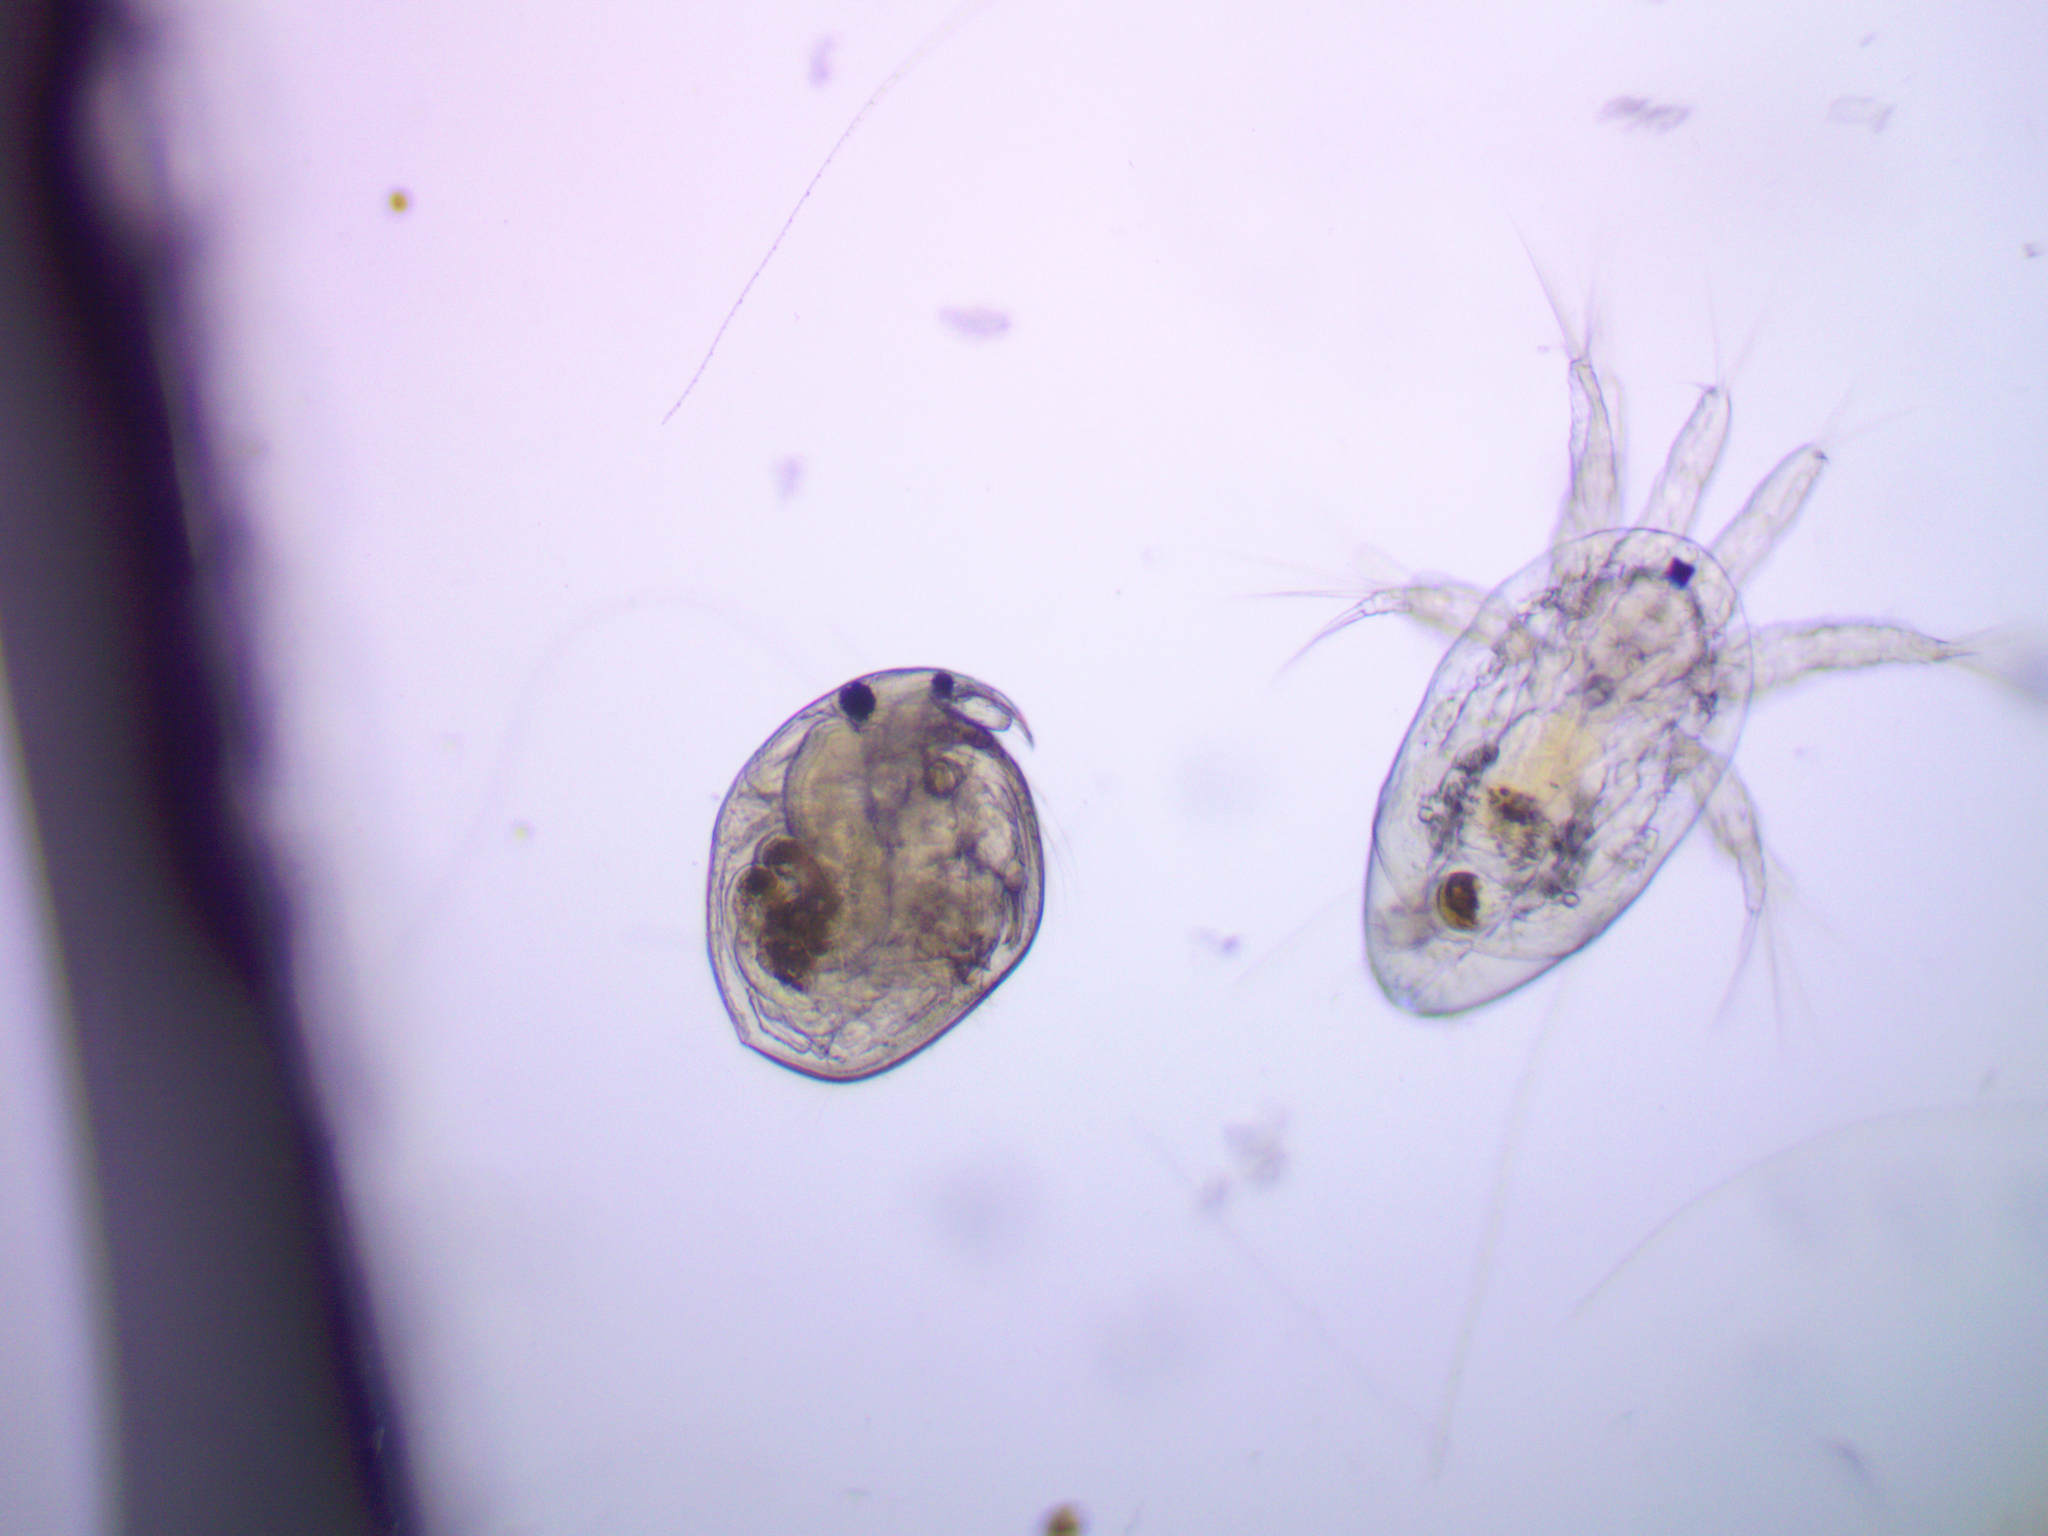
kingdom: Animalia
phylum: Arthropoda
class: Branchiopoda
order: Diplostraca
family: Chydoridae
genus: Chydorus
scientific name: Chydorus sphaericus
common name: Water flea
